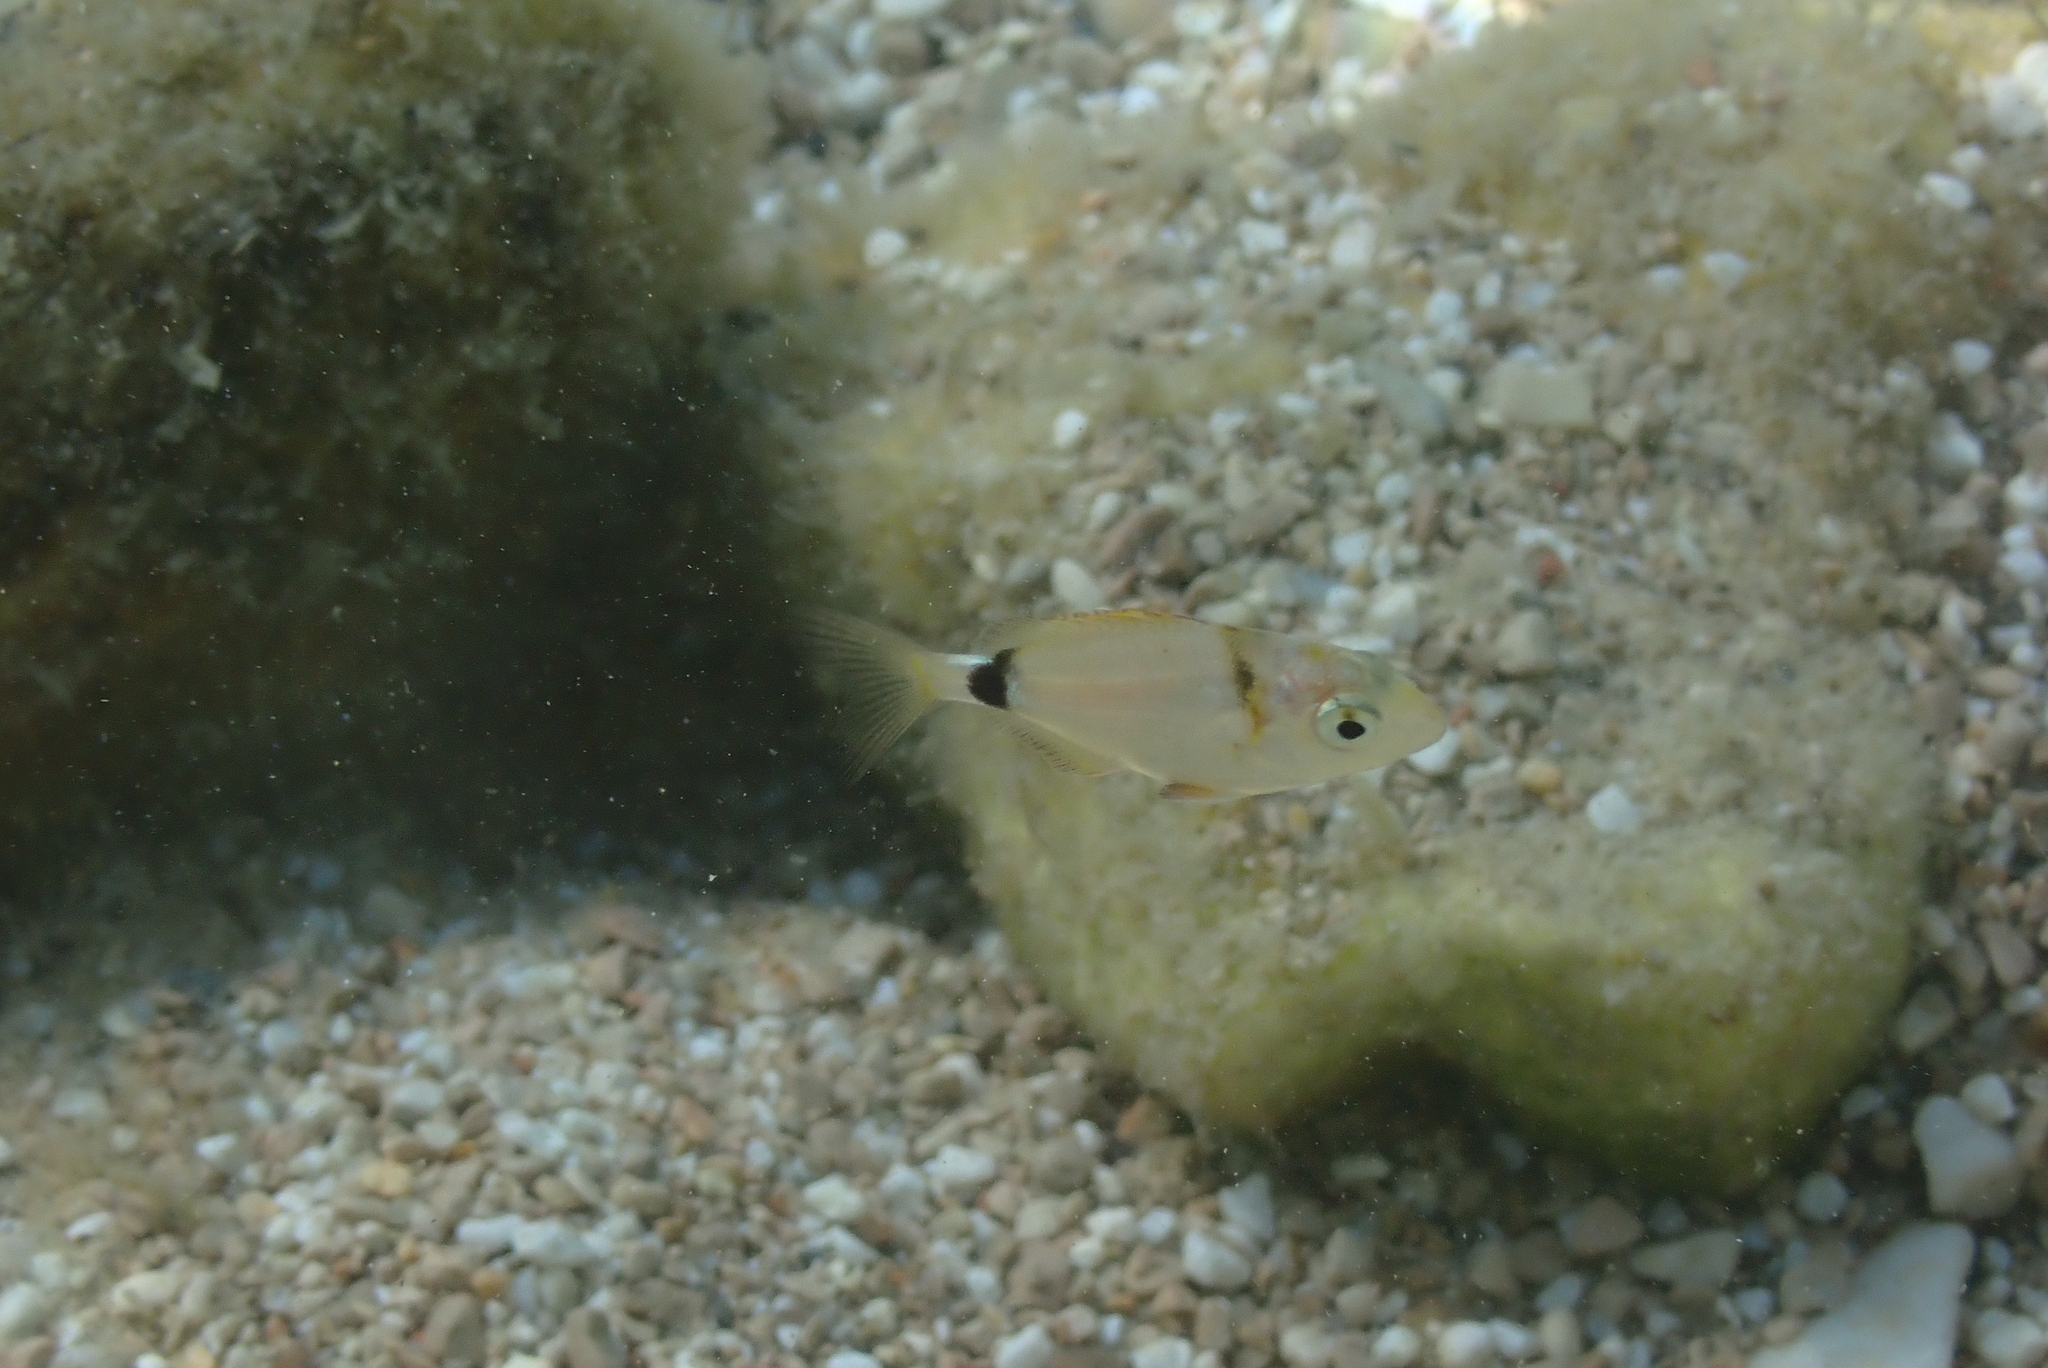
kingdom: Animalia
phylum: Chordata
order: Perciformes
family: Sparidae
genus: Diplodus
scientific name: Diplodus vulgaris
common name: Common two-banded seabream
